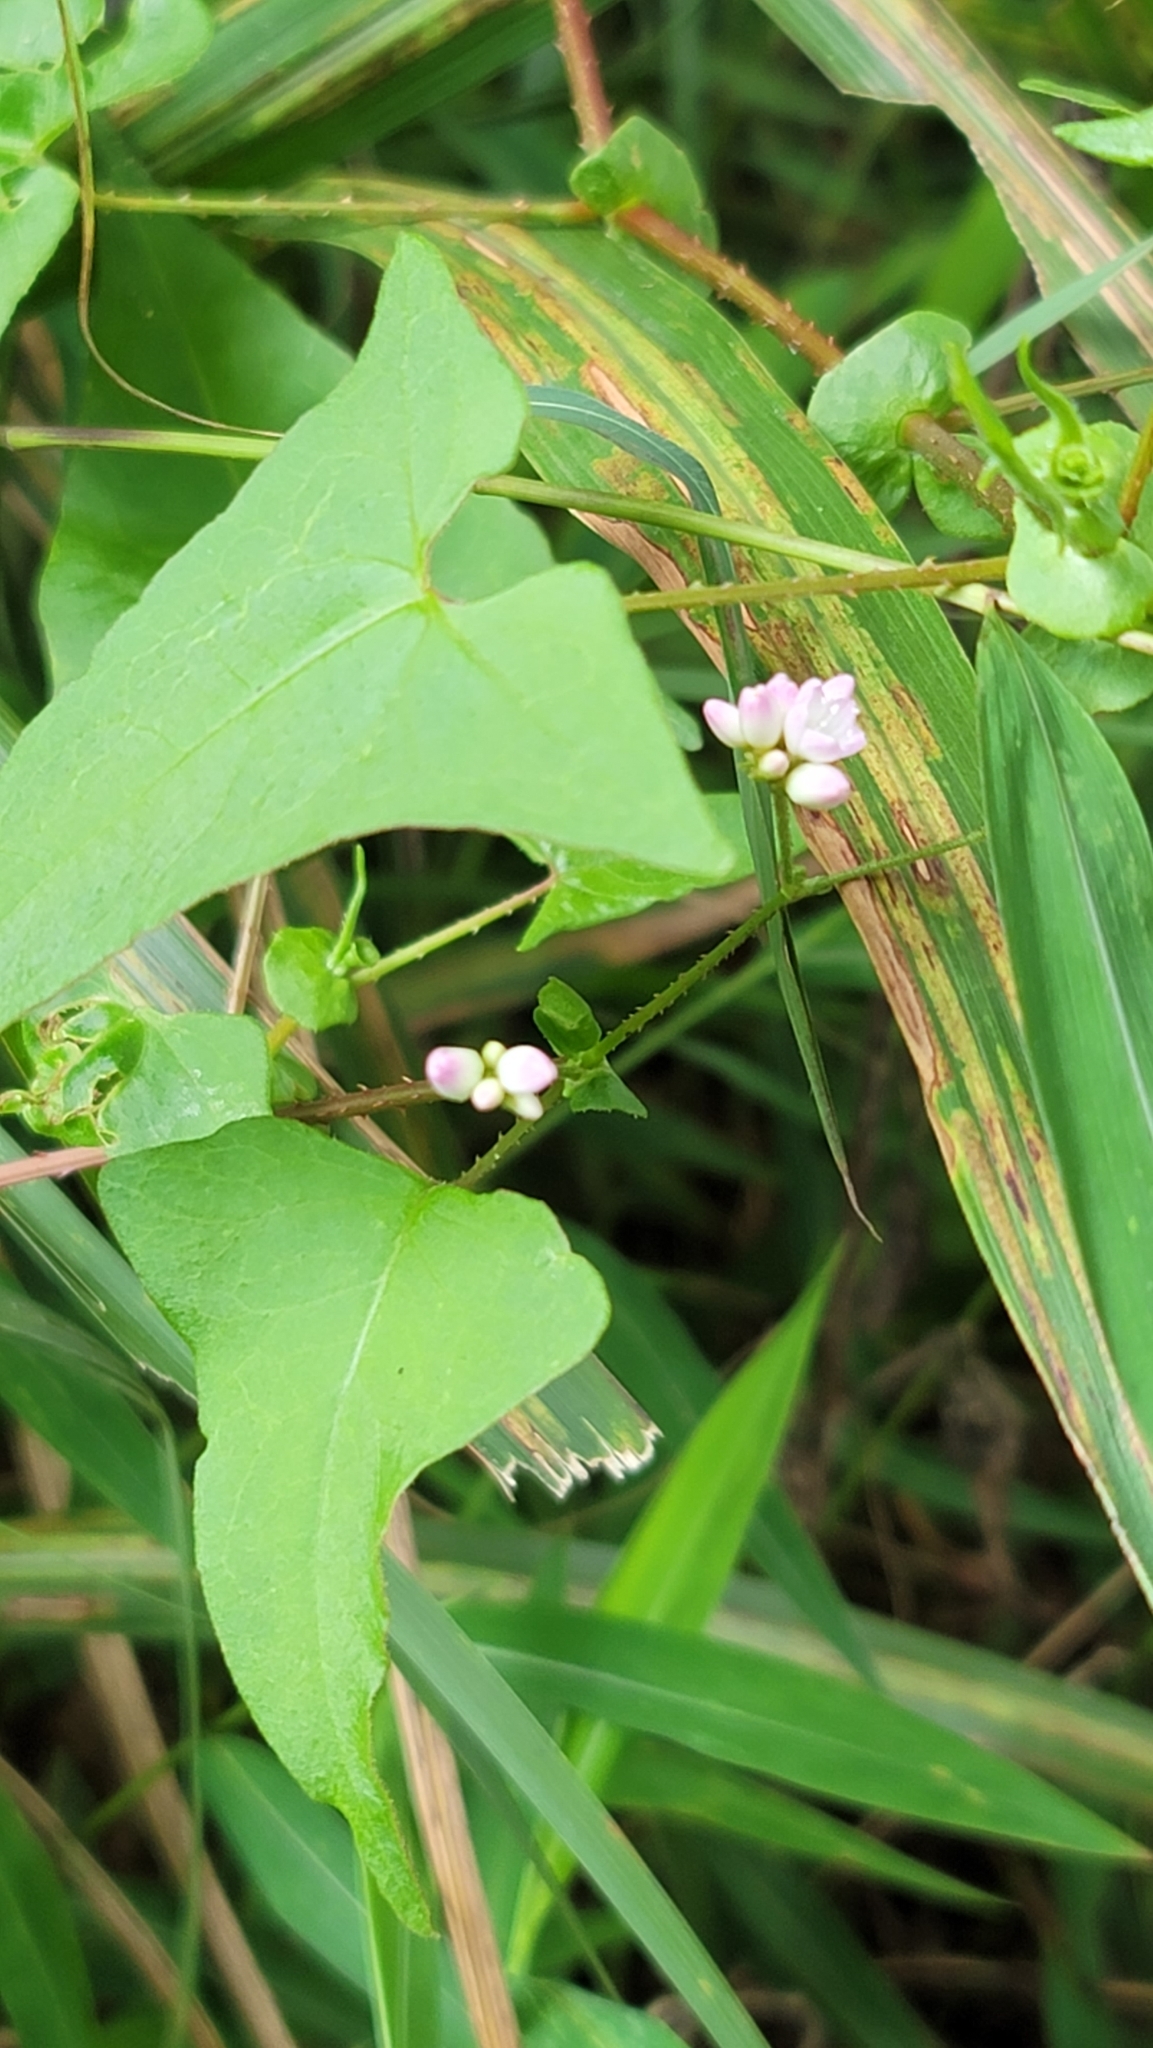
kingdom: Plantae
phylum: Tracheophyta
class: Magnoliopsida
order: Caryophyllales
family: Polygonaceae
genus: Persicaria
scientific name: Persicaria senticosa
